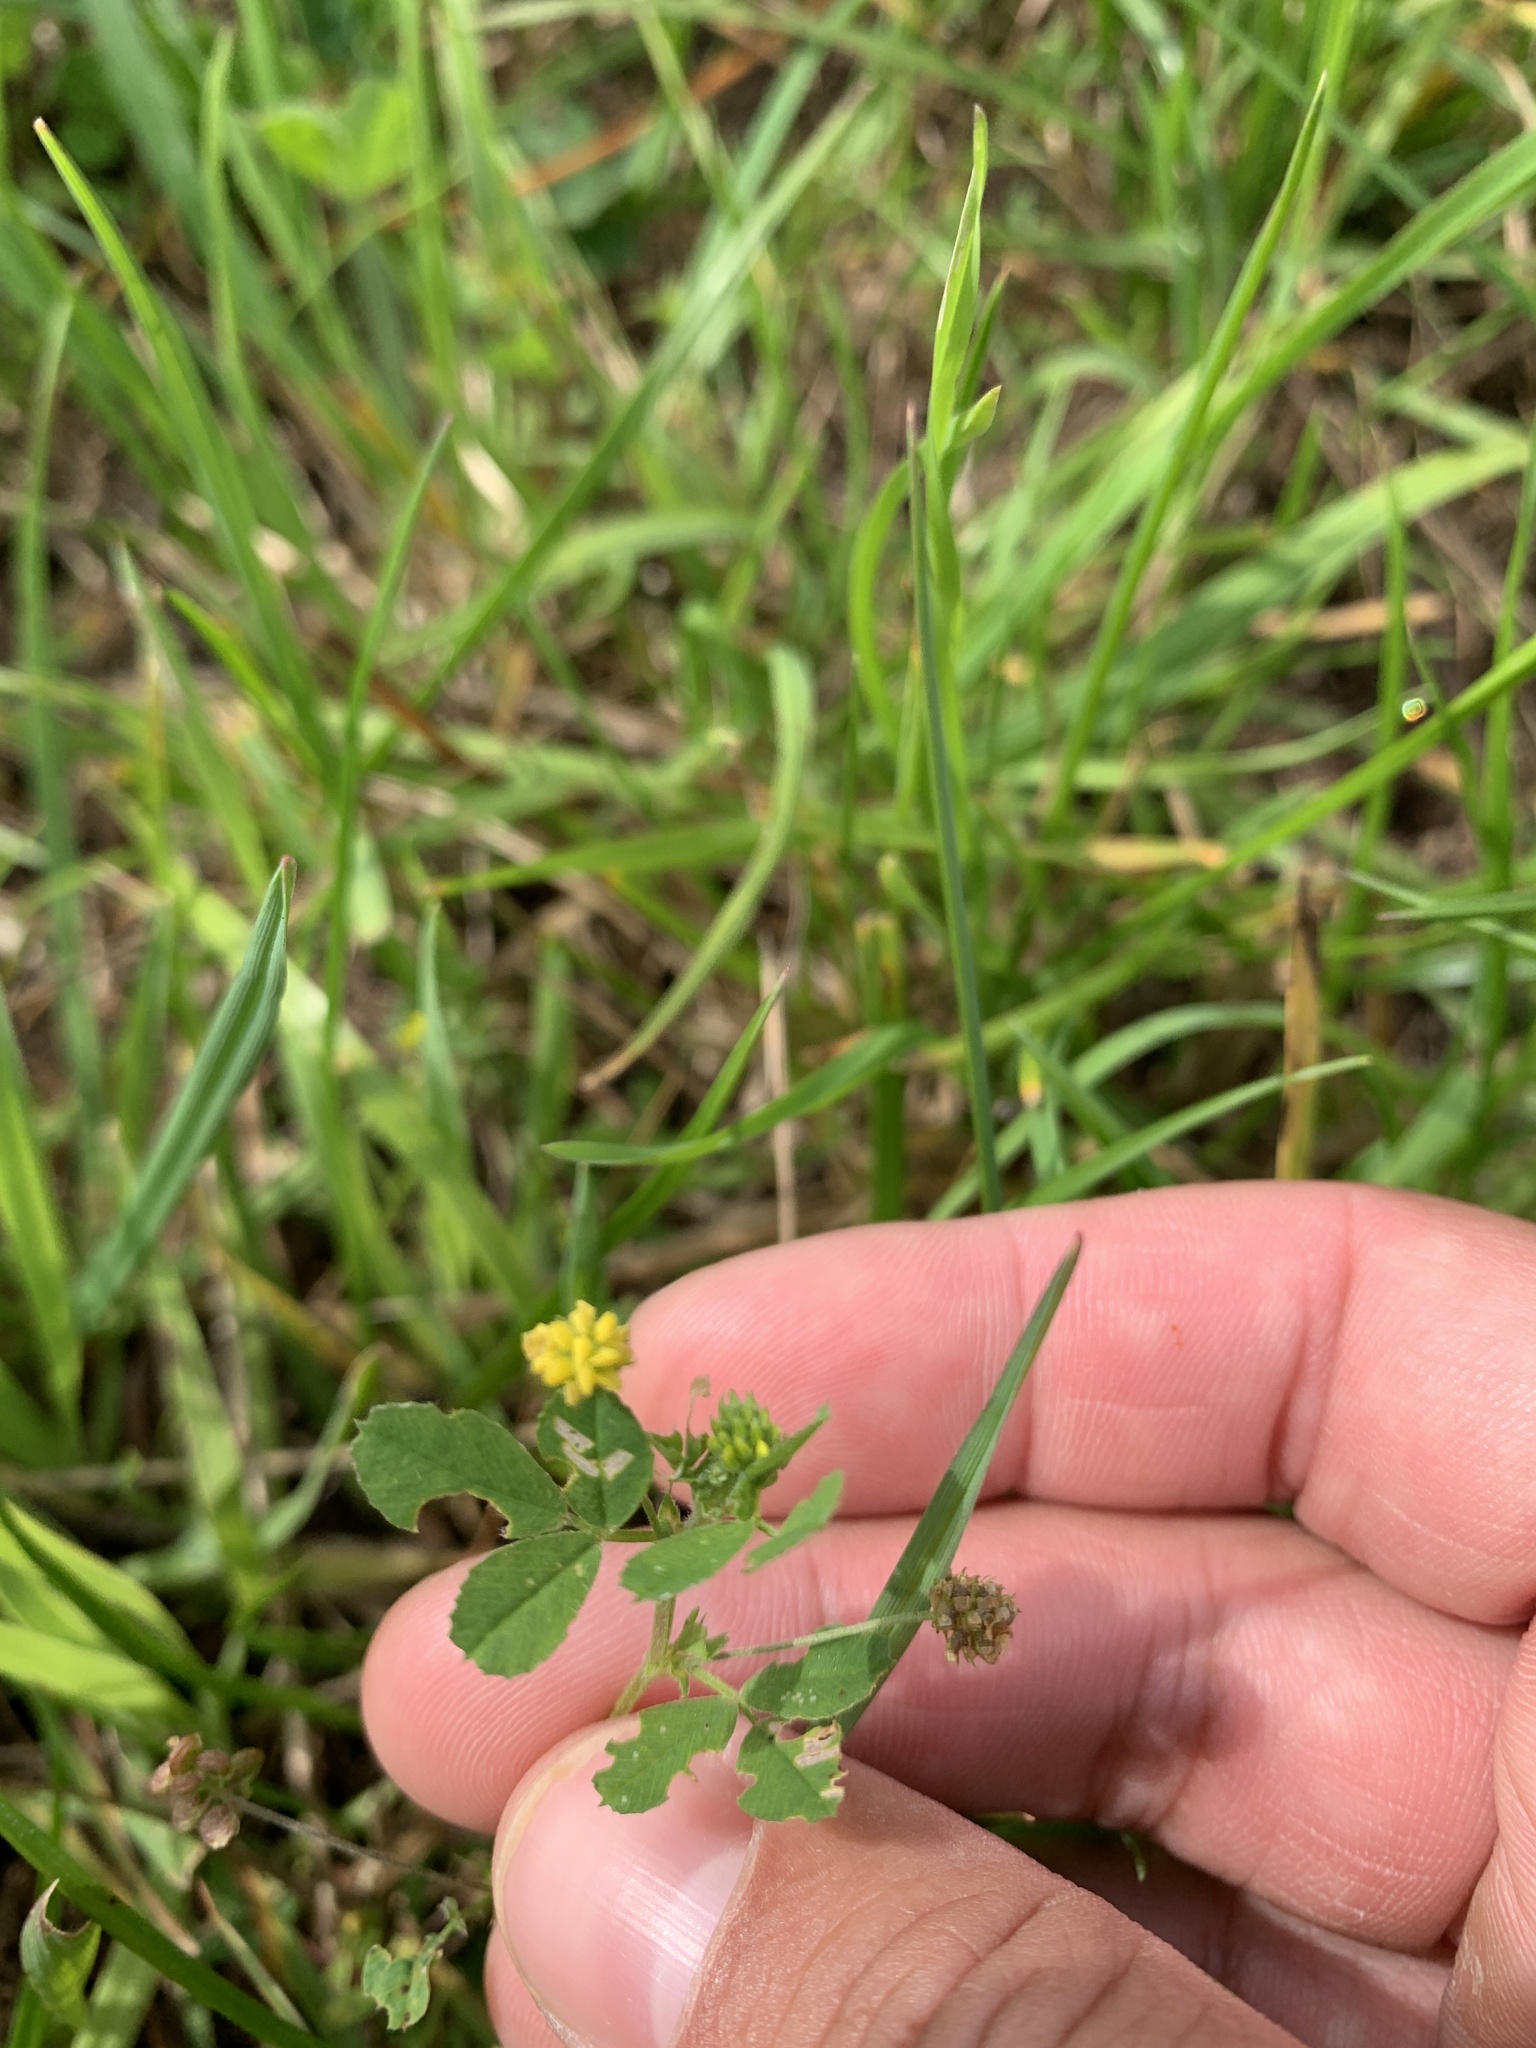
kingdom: Plantae
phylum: Tracheophyta
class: Magnoliopsida
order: Fabales
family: Fabaceae
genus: Medicago
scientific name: Medicago lupulina
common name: Black medick
